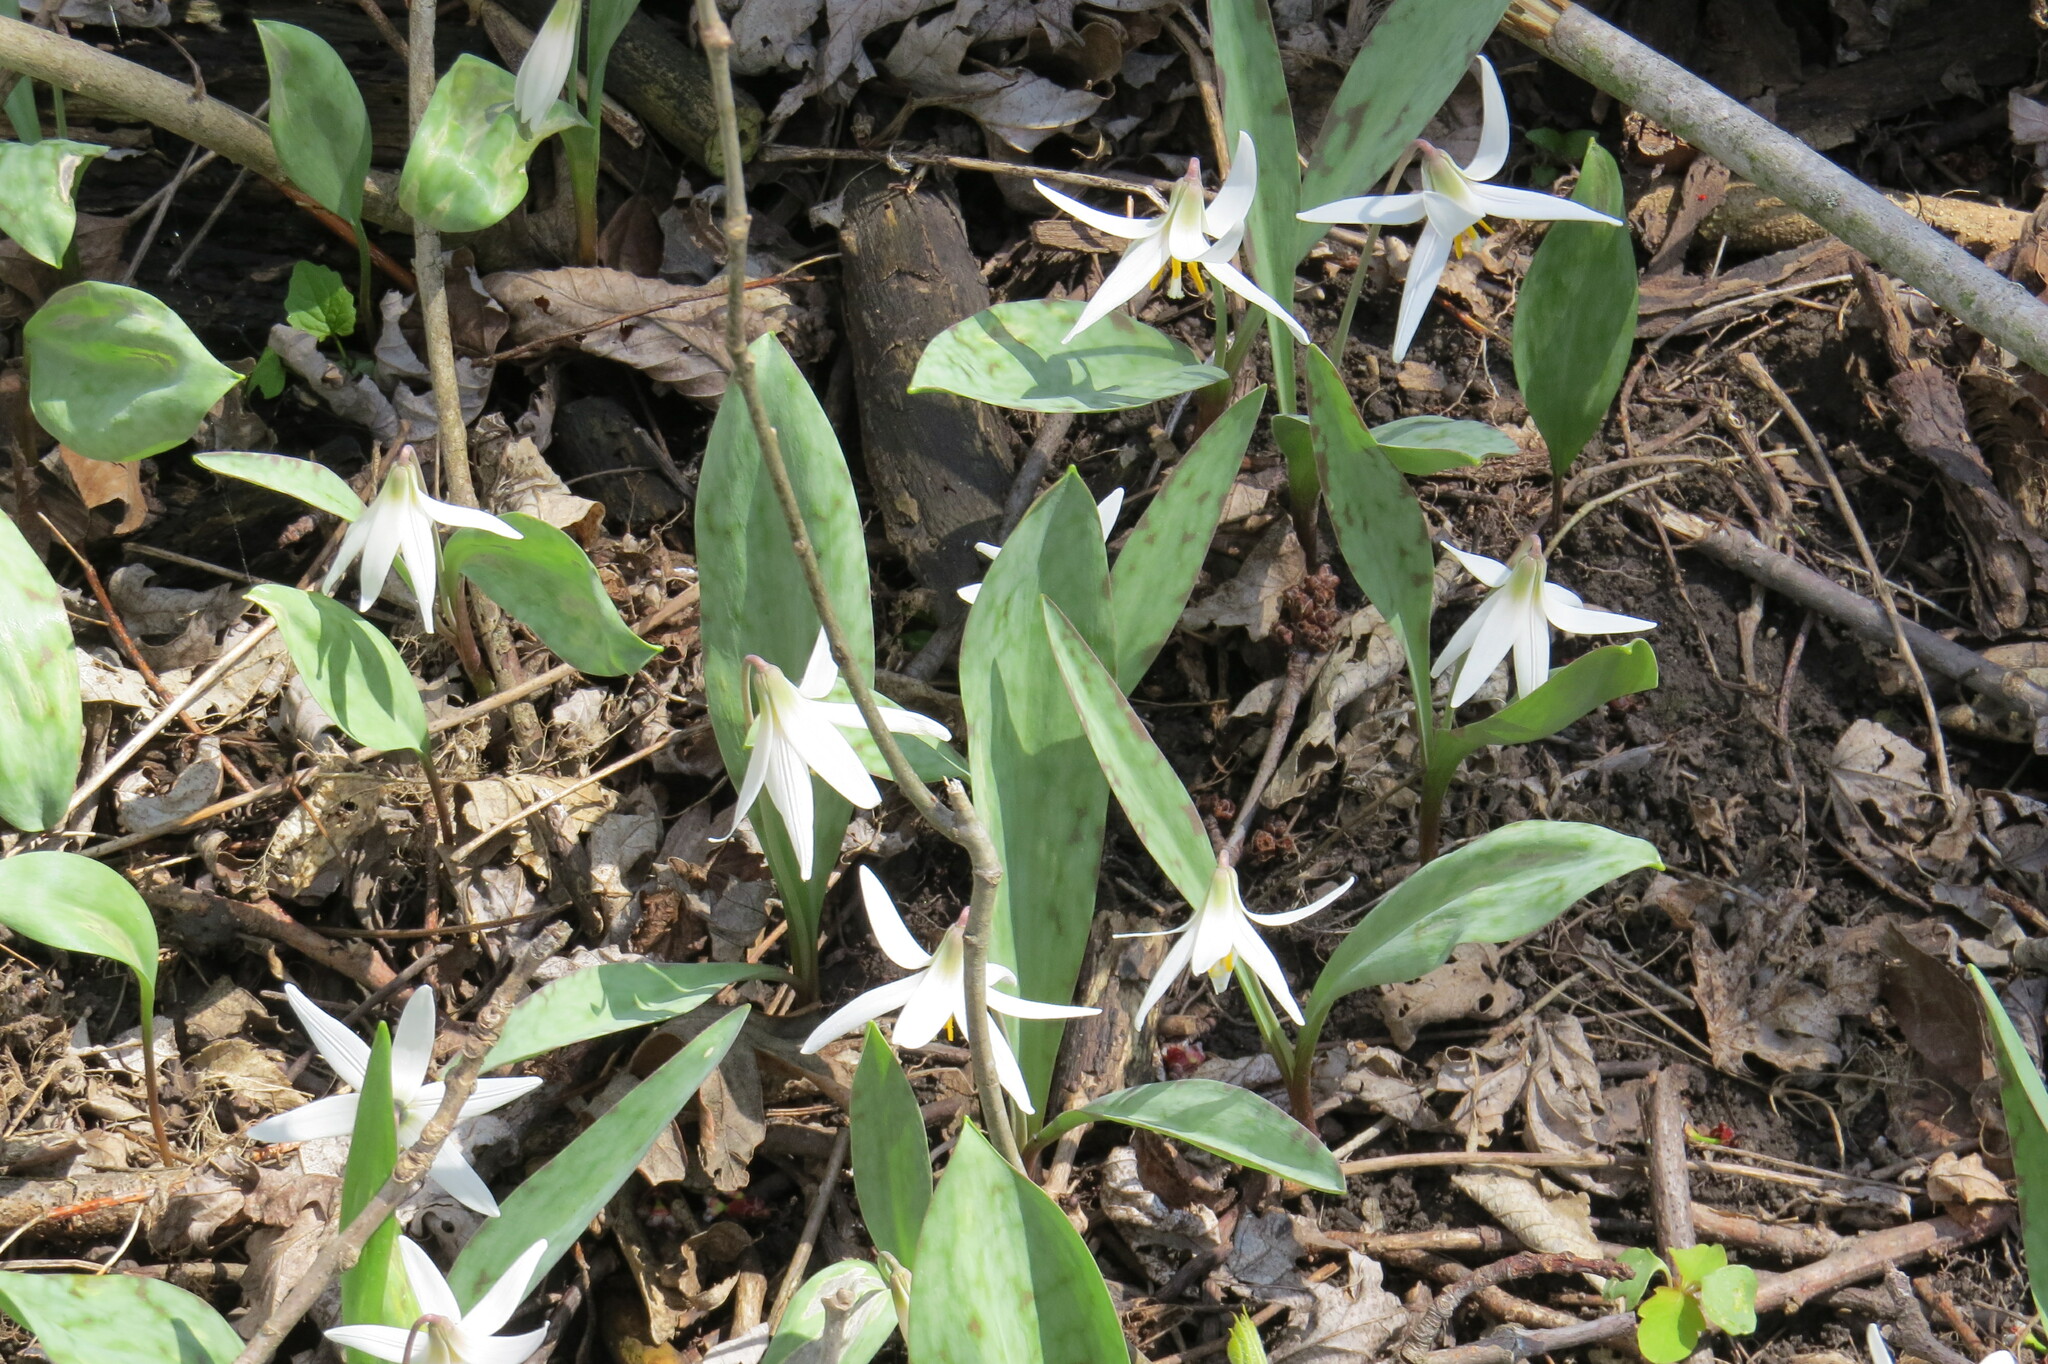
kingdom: Plantae
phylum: Tracheophyta
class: Liliopsida
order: Liliales
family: Liliaceae
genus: Erythronium
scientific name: Erythronium albidum
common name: White trout-lily
